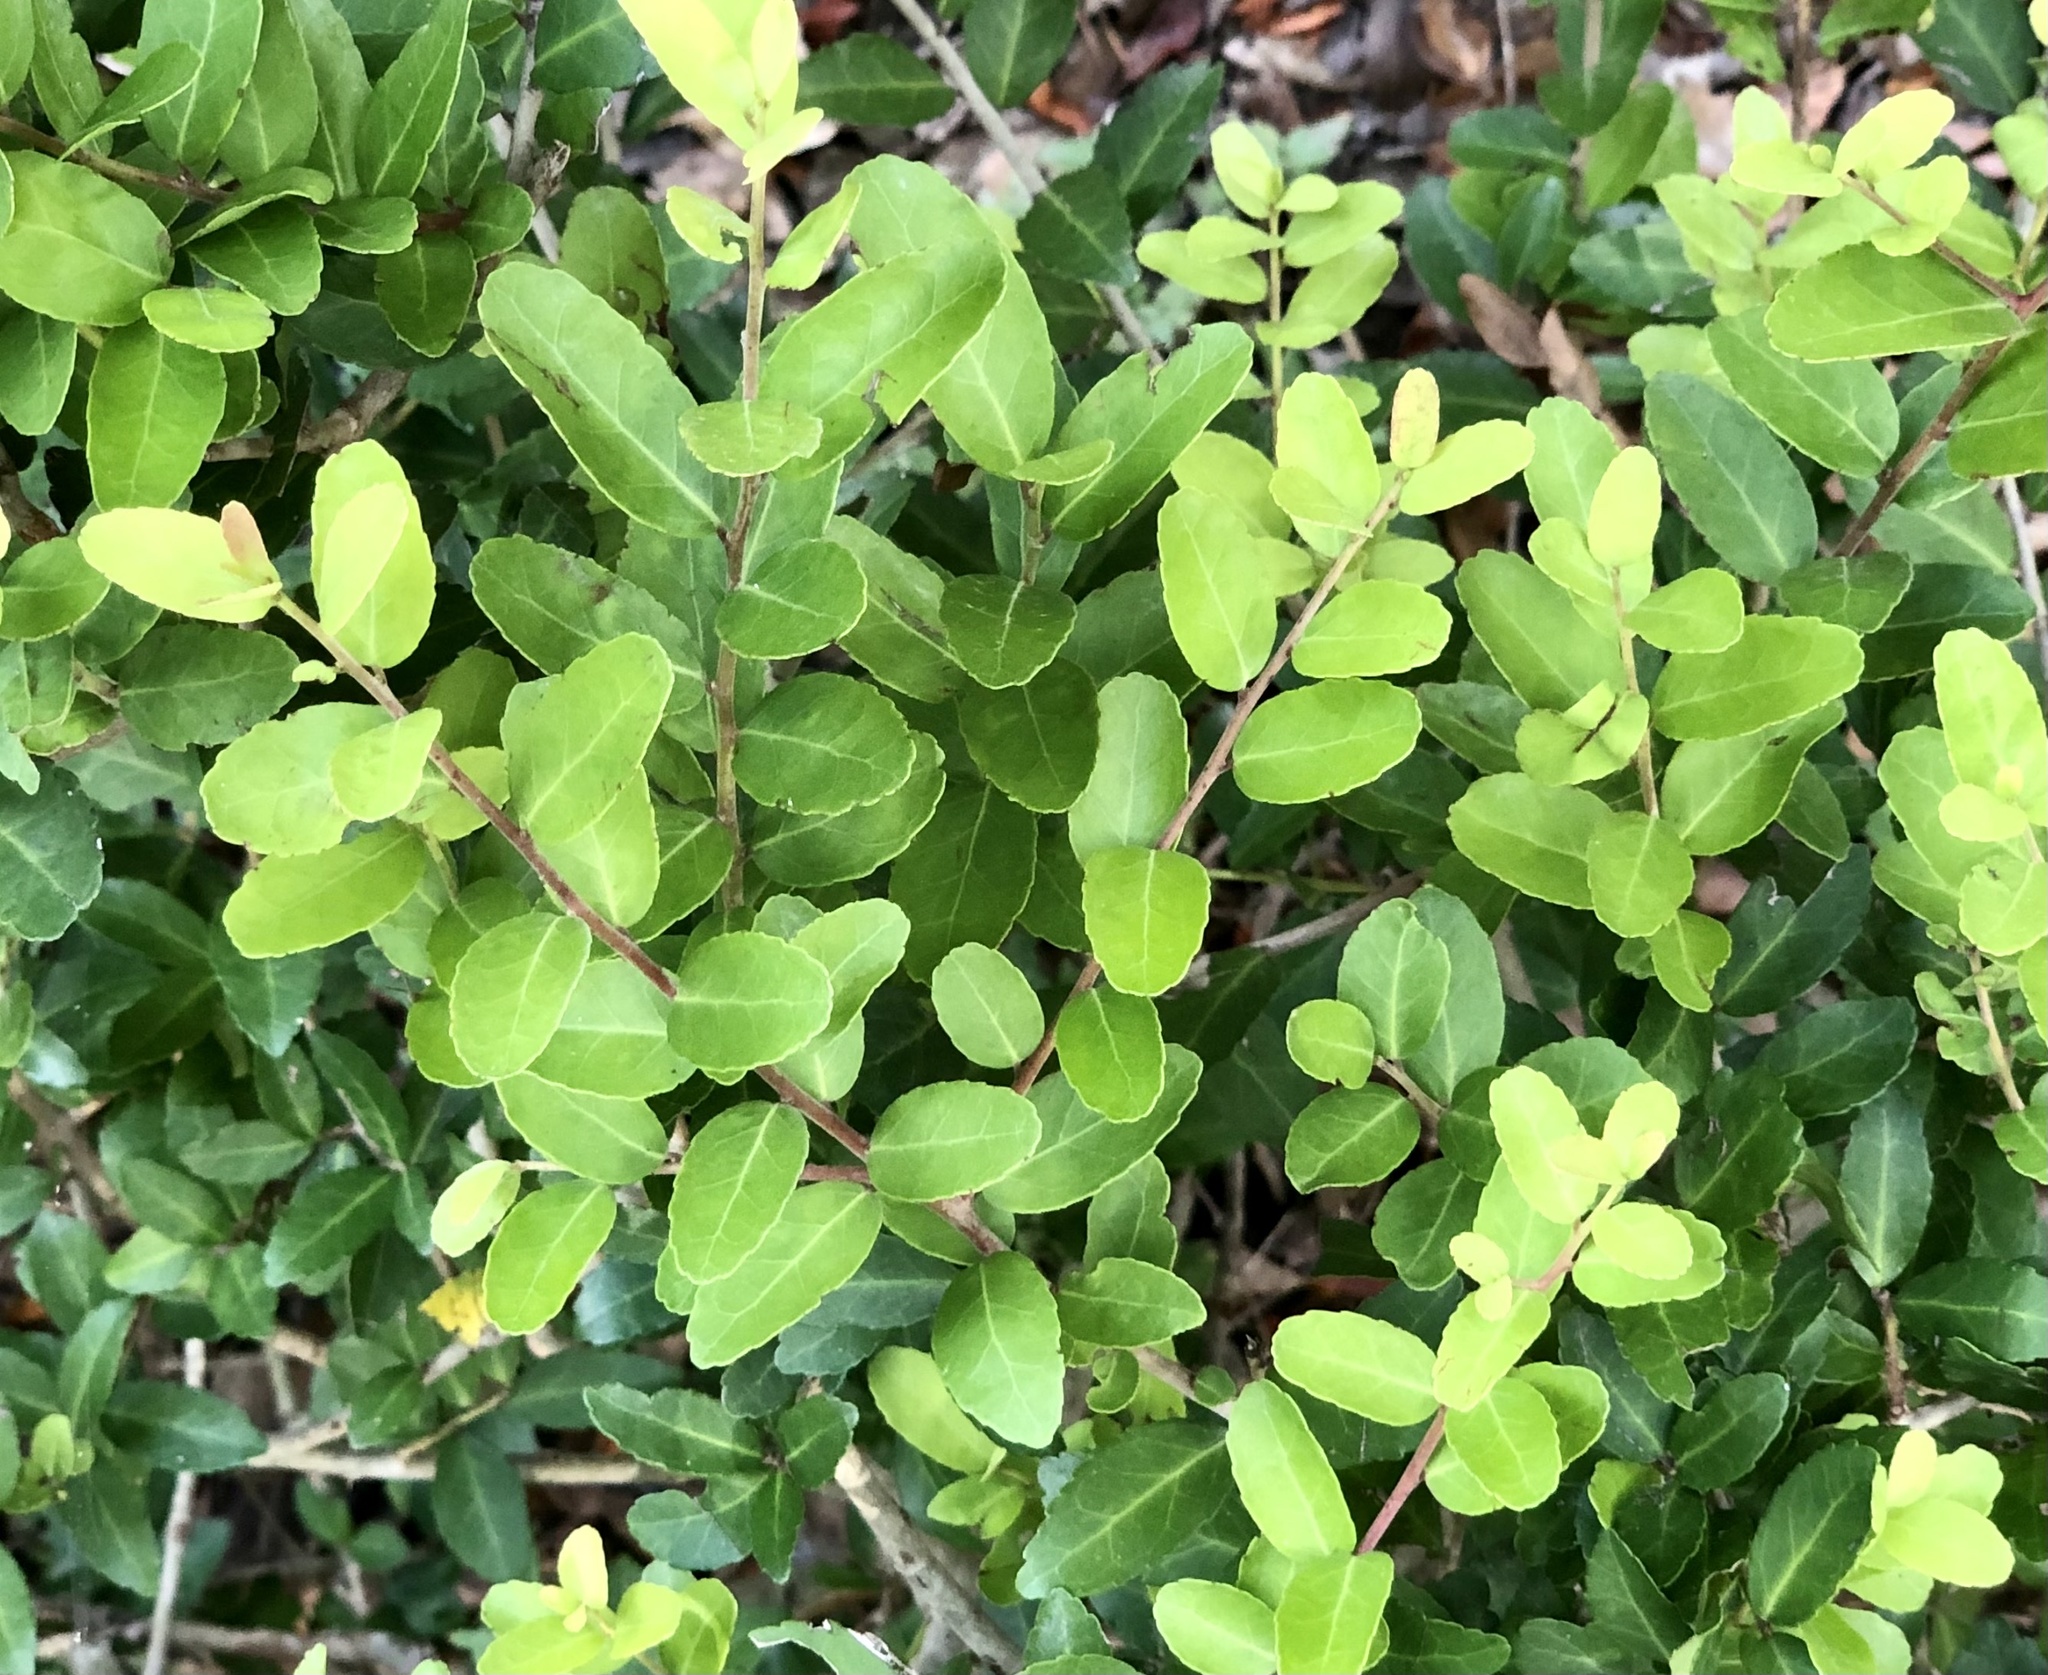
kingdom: Plantae
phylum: Tracheophyta
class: Magnoliopsida
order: Aquifoliales
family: Aquifoliaceae
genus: Ilex
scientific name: Ilex vomitoria
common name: Yaupon holly
